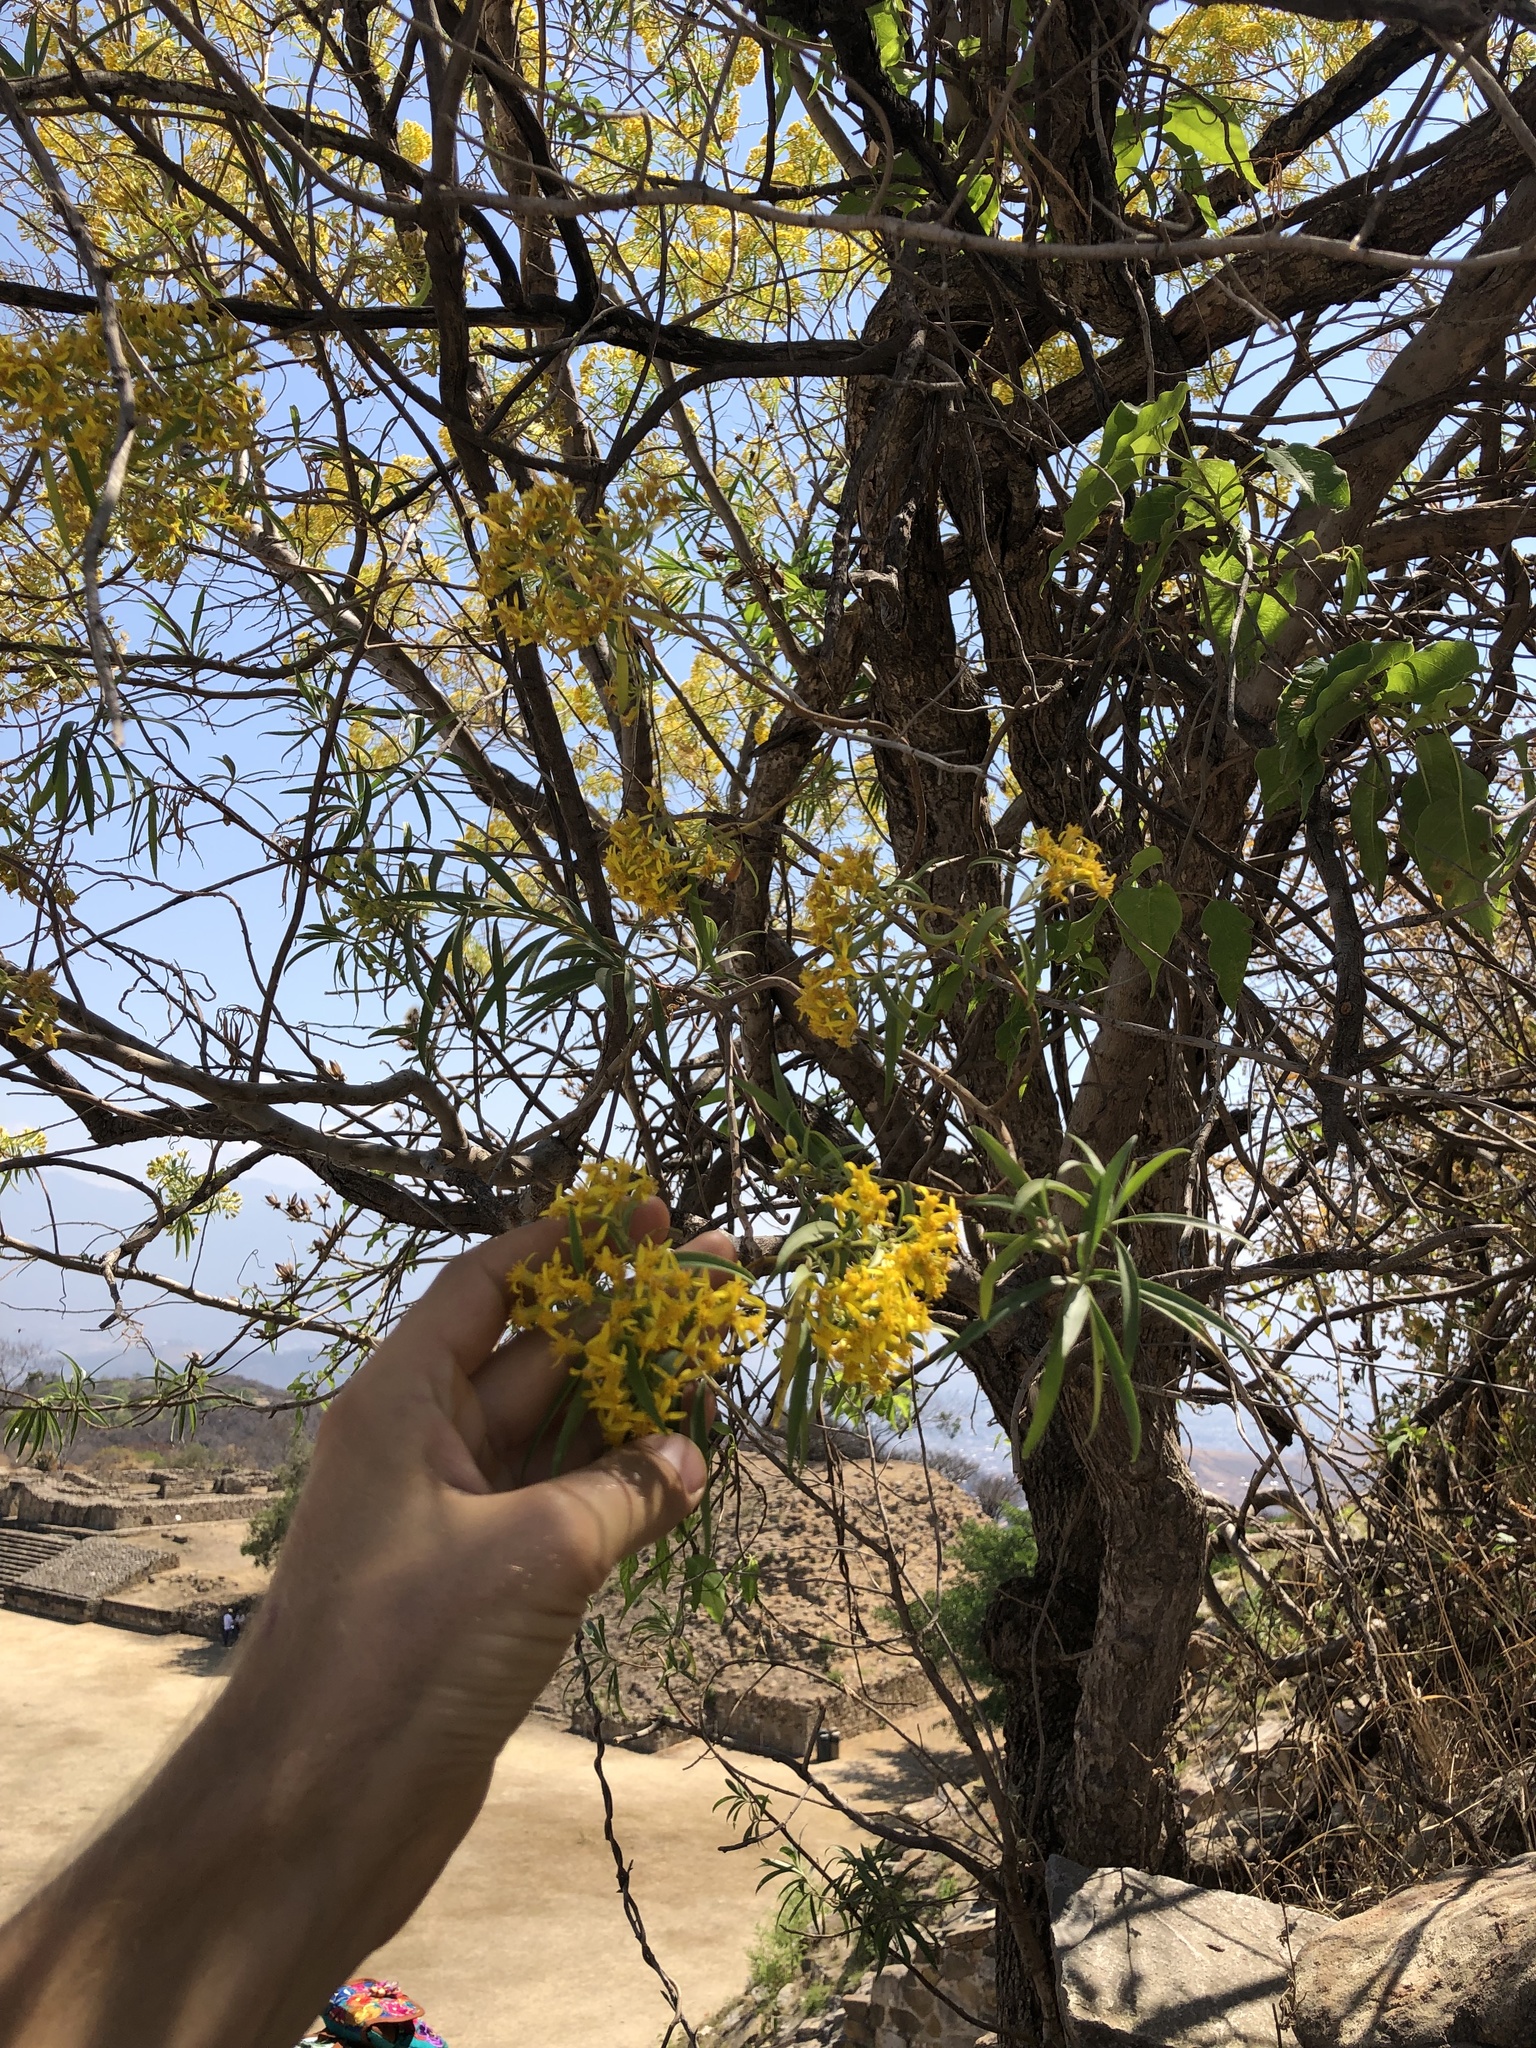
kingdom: Plantae
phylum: Tracheophyta
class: Magnoliopsida
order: Asterales
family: Asteraceae
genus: Barkleyanthus
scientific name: Barkleyanthus salicifolius
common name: Willow ragwort
